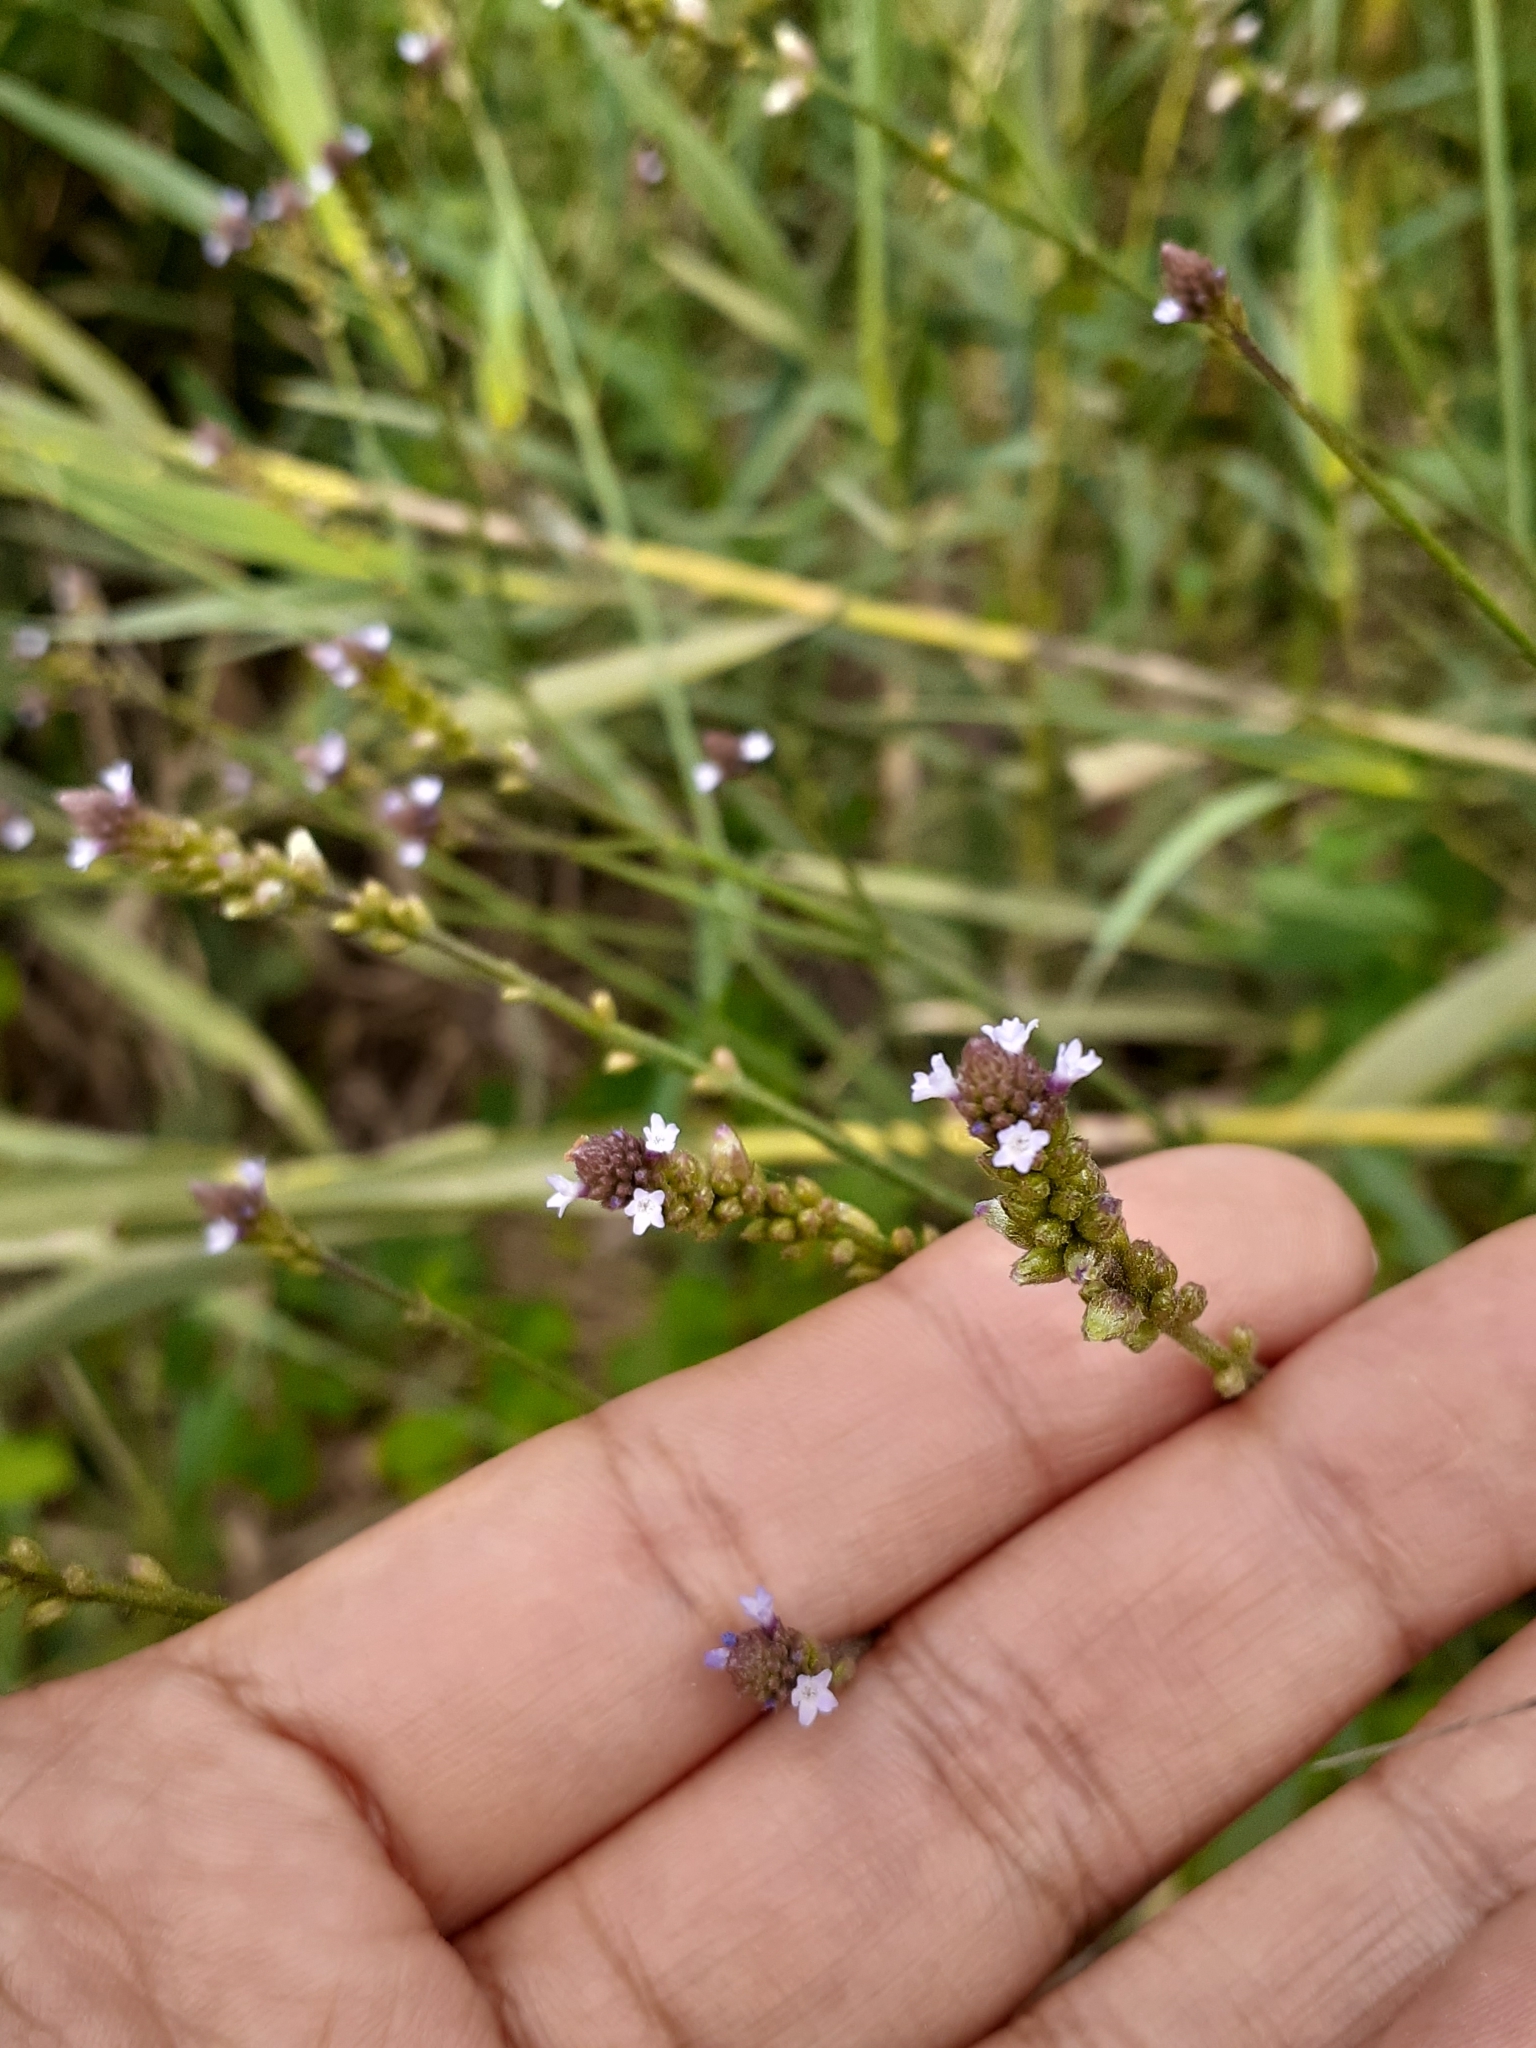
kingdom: Plantae
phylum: Tracheophyta
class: Magnoliopsida
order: Lamiales
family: Verbenaceae
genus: Verbena
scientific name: Verbena litoralis
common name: Seashore vervain
